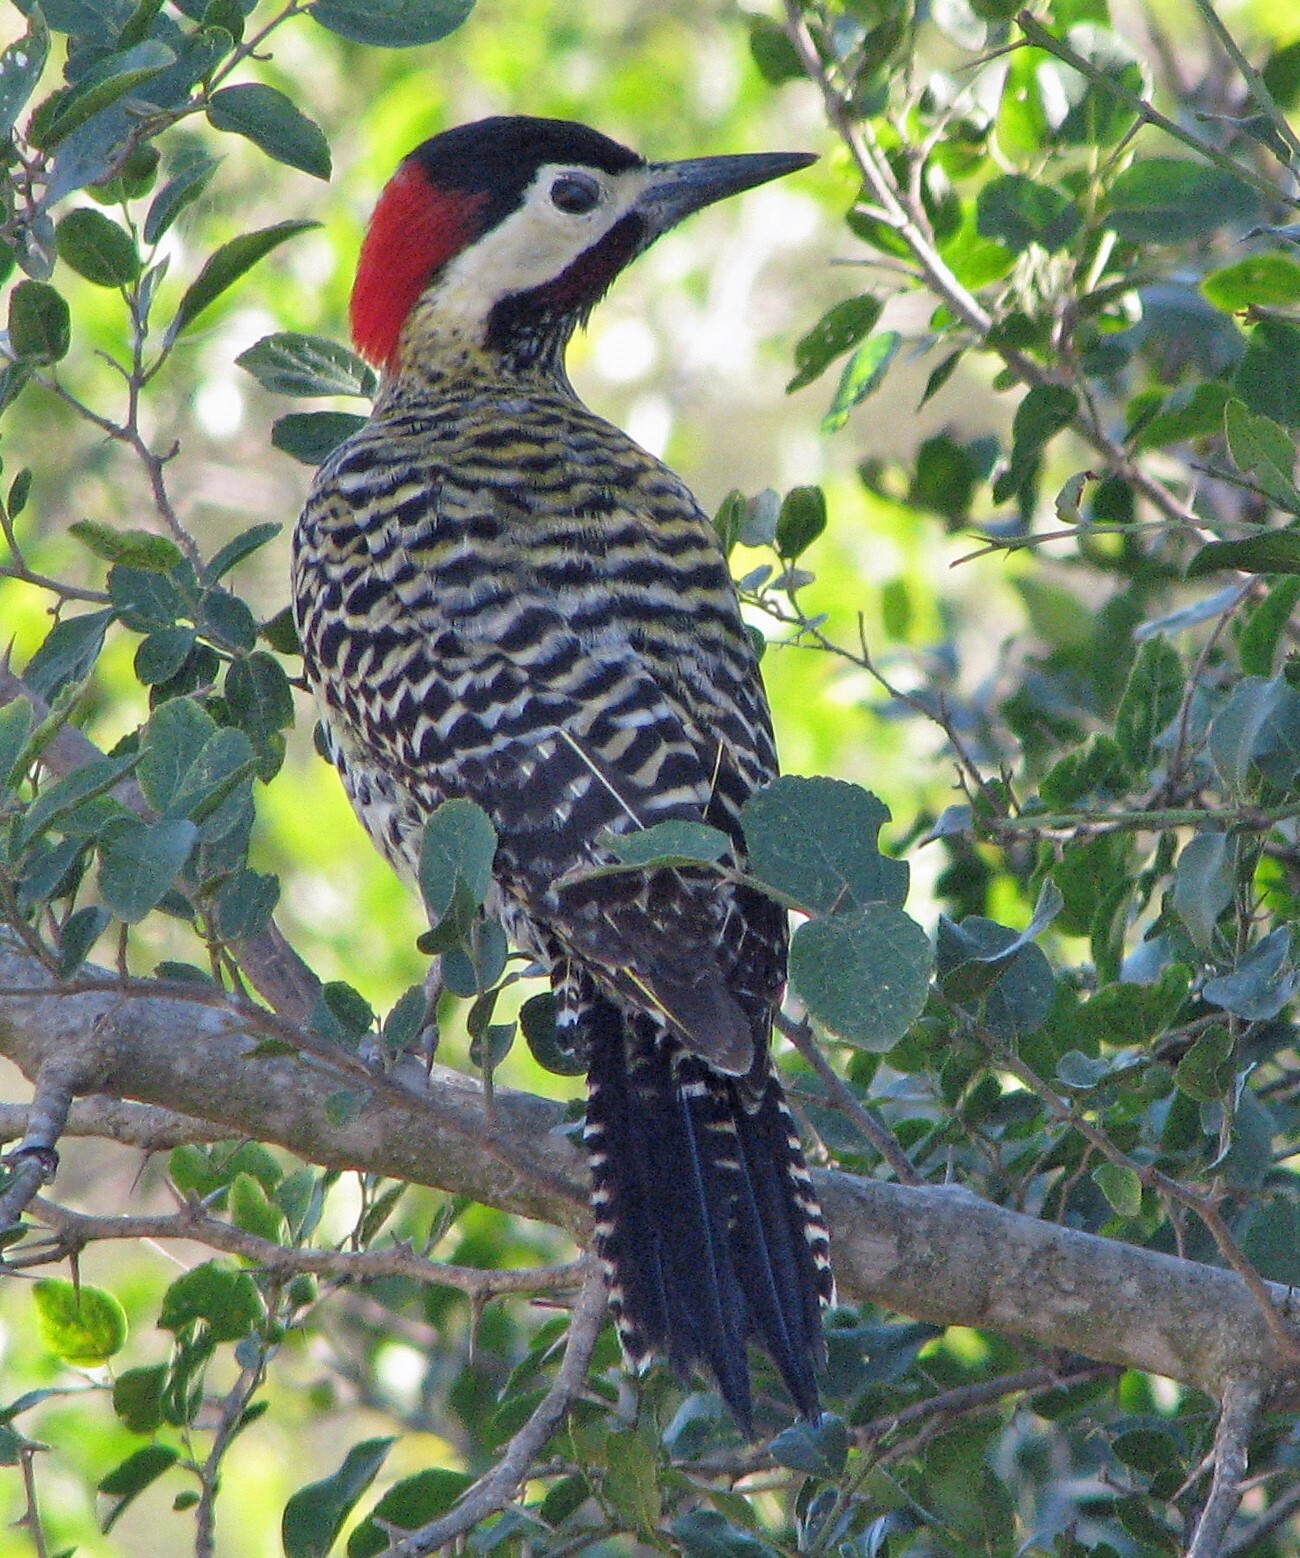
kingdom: Animalia
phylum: Chordata
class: Aves
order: Piciformes
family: Picidae
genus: Colaptes
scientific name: Colaptes melanochloros
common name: Green-barred woodpecker
